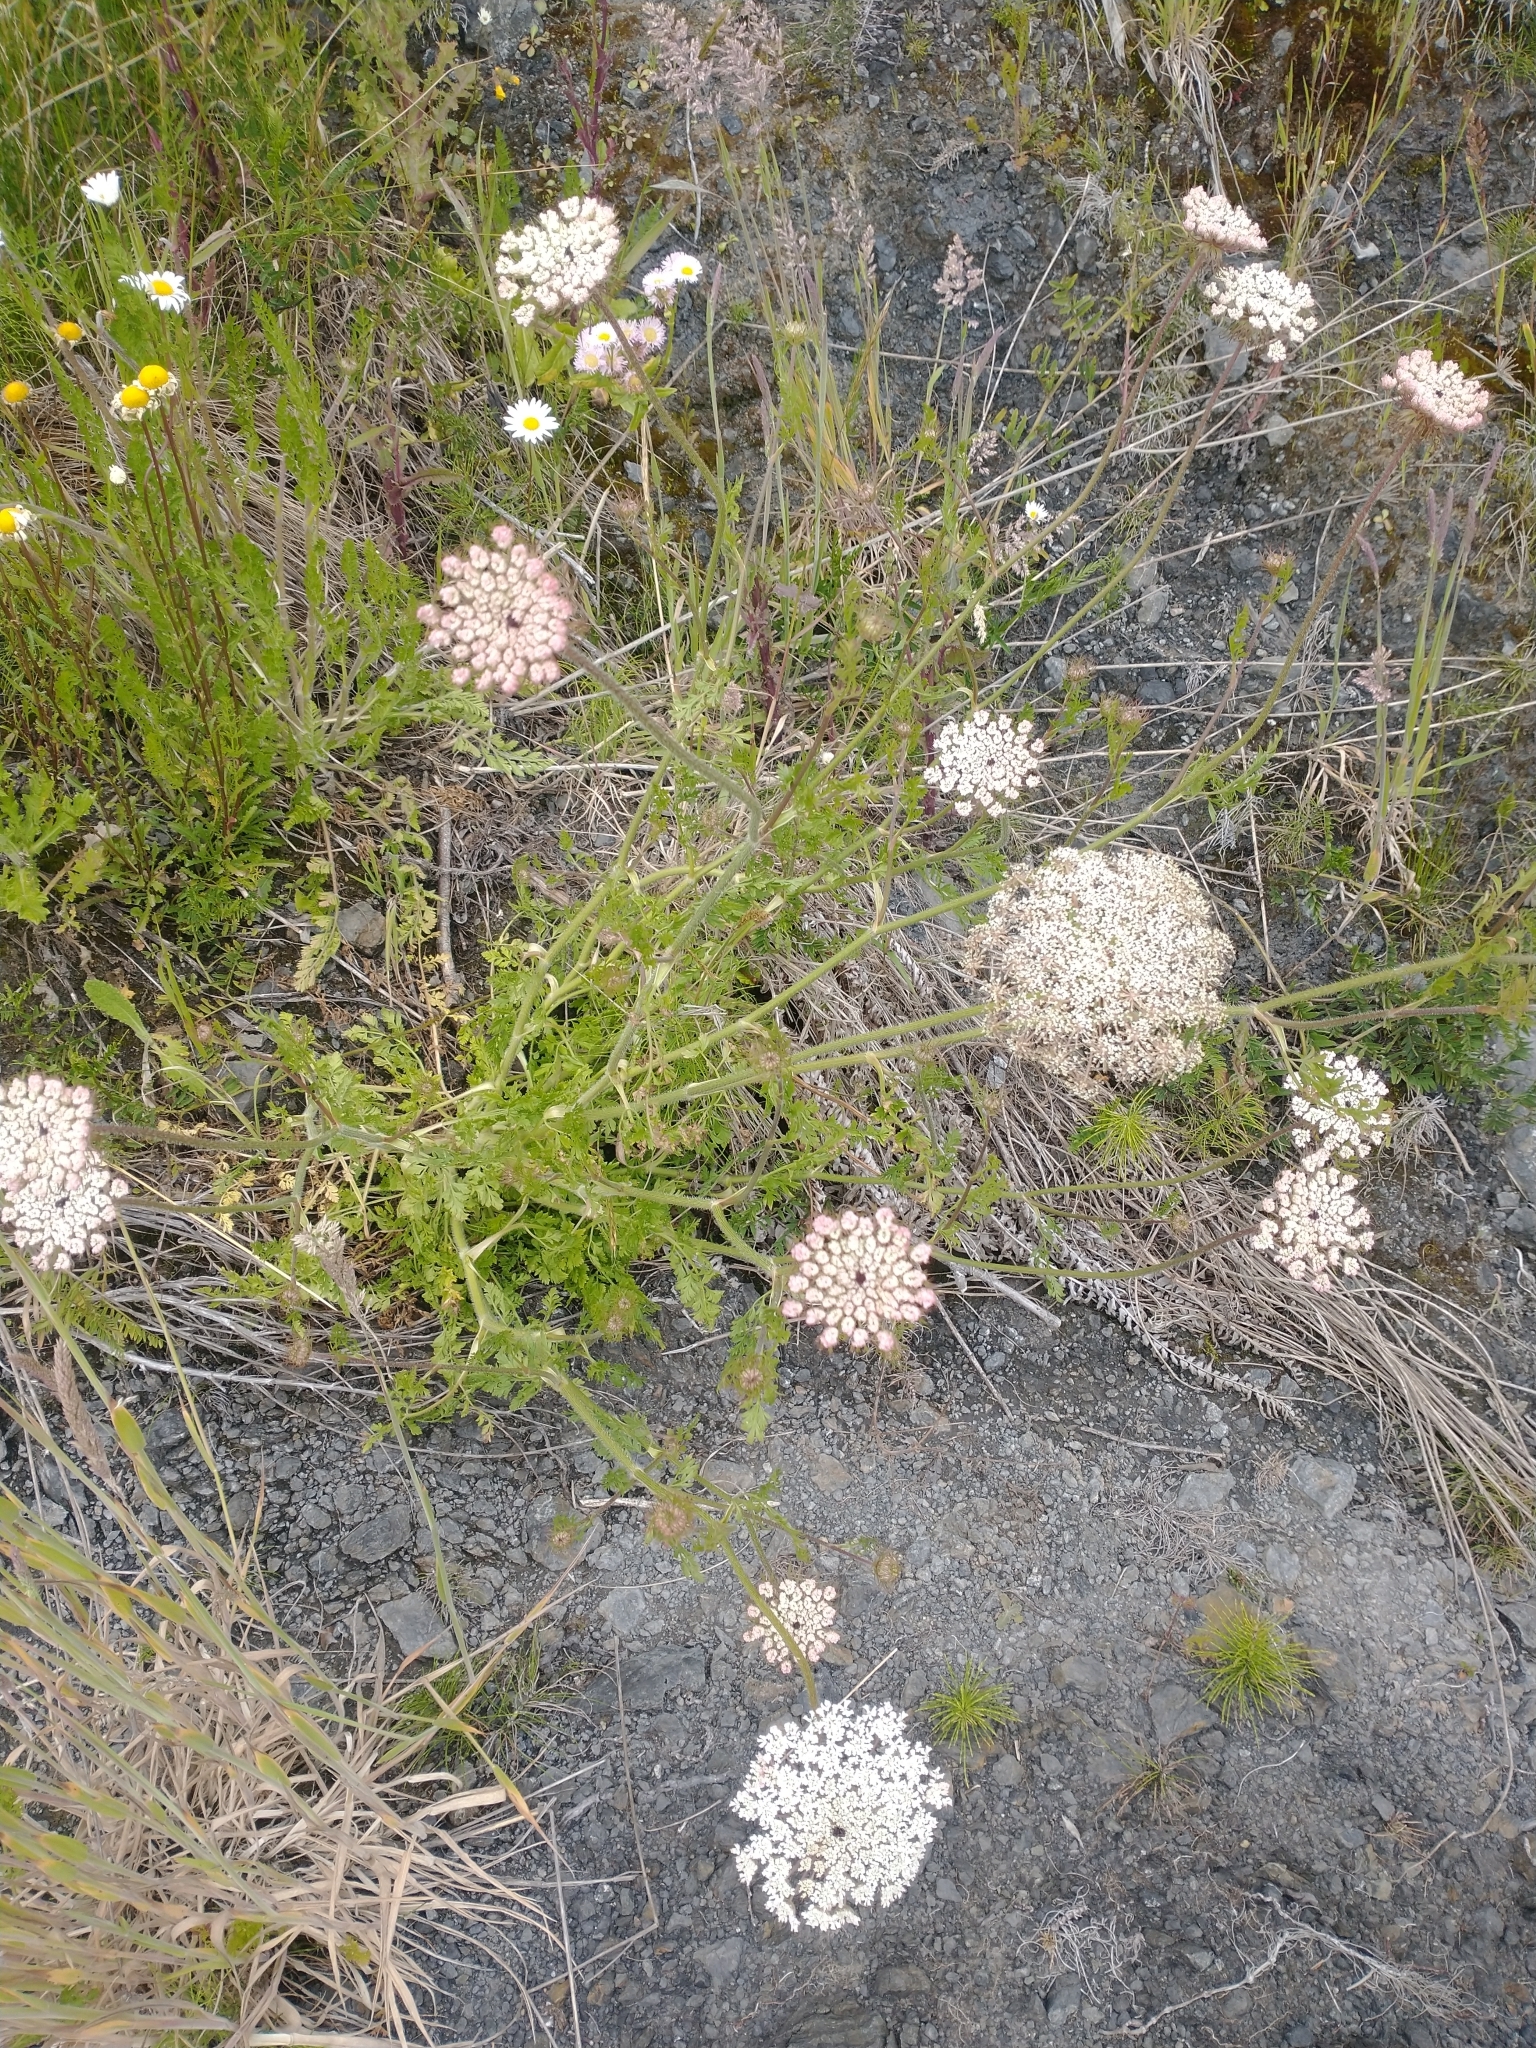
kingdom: Plantae
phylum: Tracheophyta
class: Magnoliopsida
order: Apiales
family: Apiaceae
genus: Daucus
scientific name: Daucus carota
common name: Wild carrot
